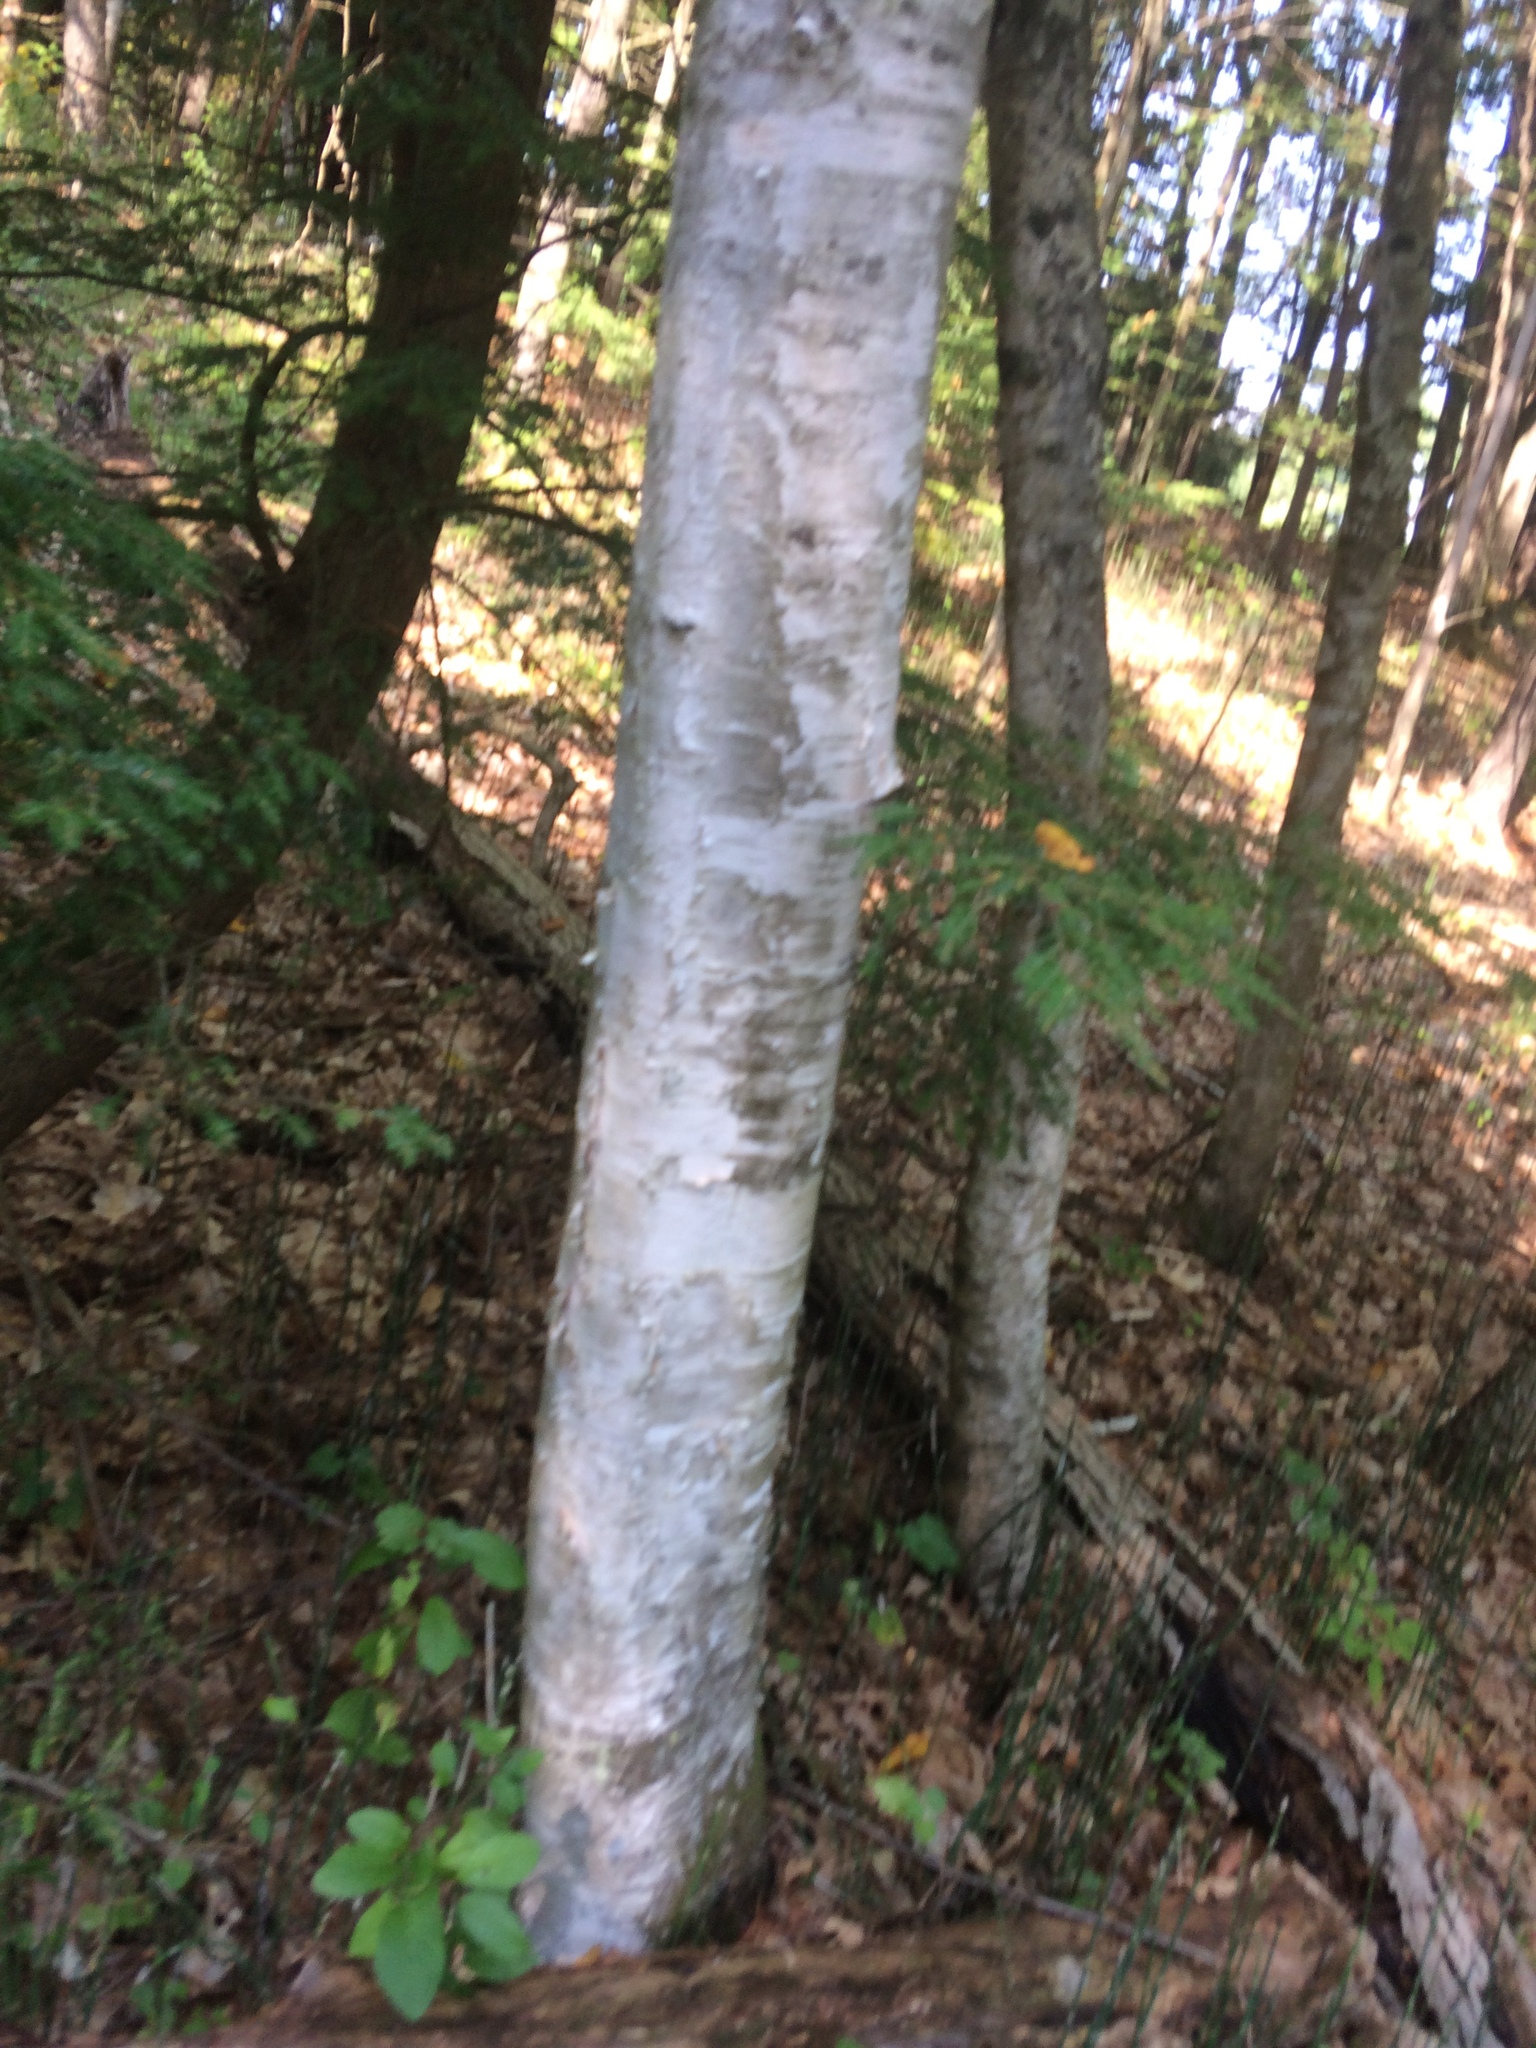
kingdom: Plantae
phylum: Tracheophyta
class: Magnoliopsida
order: Fagales
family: Betulaceae
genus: Betula
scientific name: Betula papyrifera
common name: Paper birch
